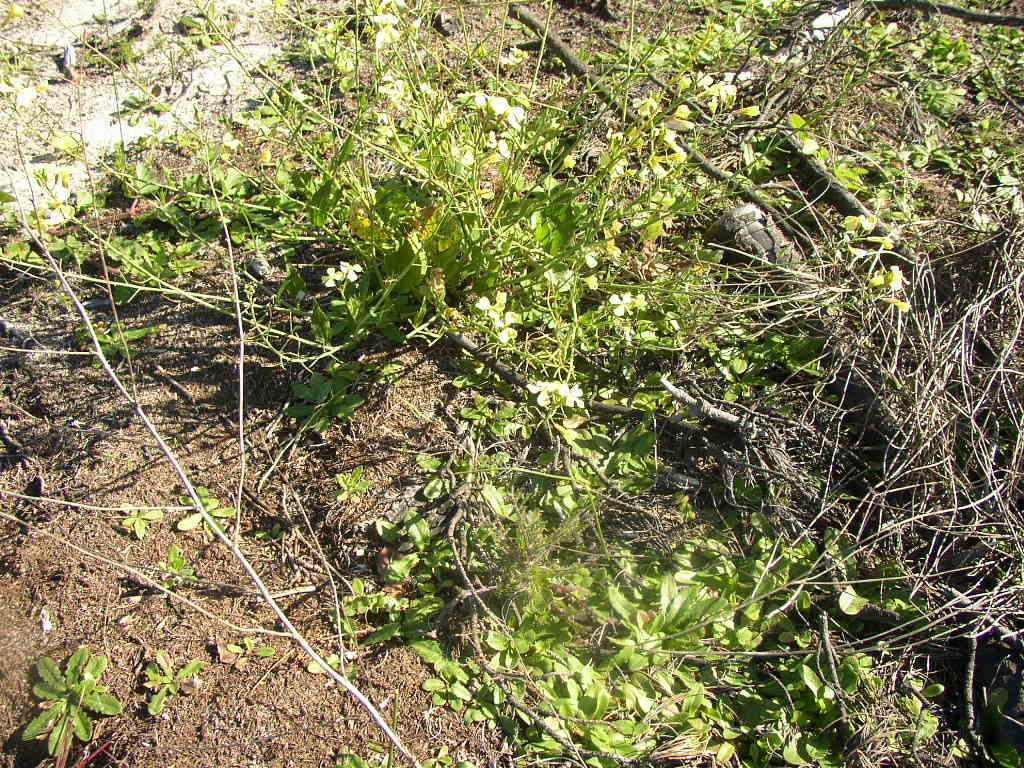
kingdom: Plantae
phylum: Tracheophyta
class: Magnoliopsida
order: Brassicales
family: Brassicaceae
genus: Raphanus
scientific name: Raphanus raphanistrum
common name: Wild radish
